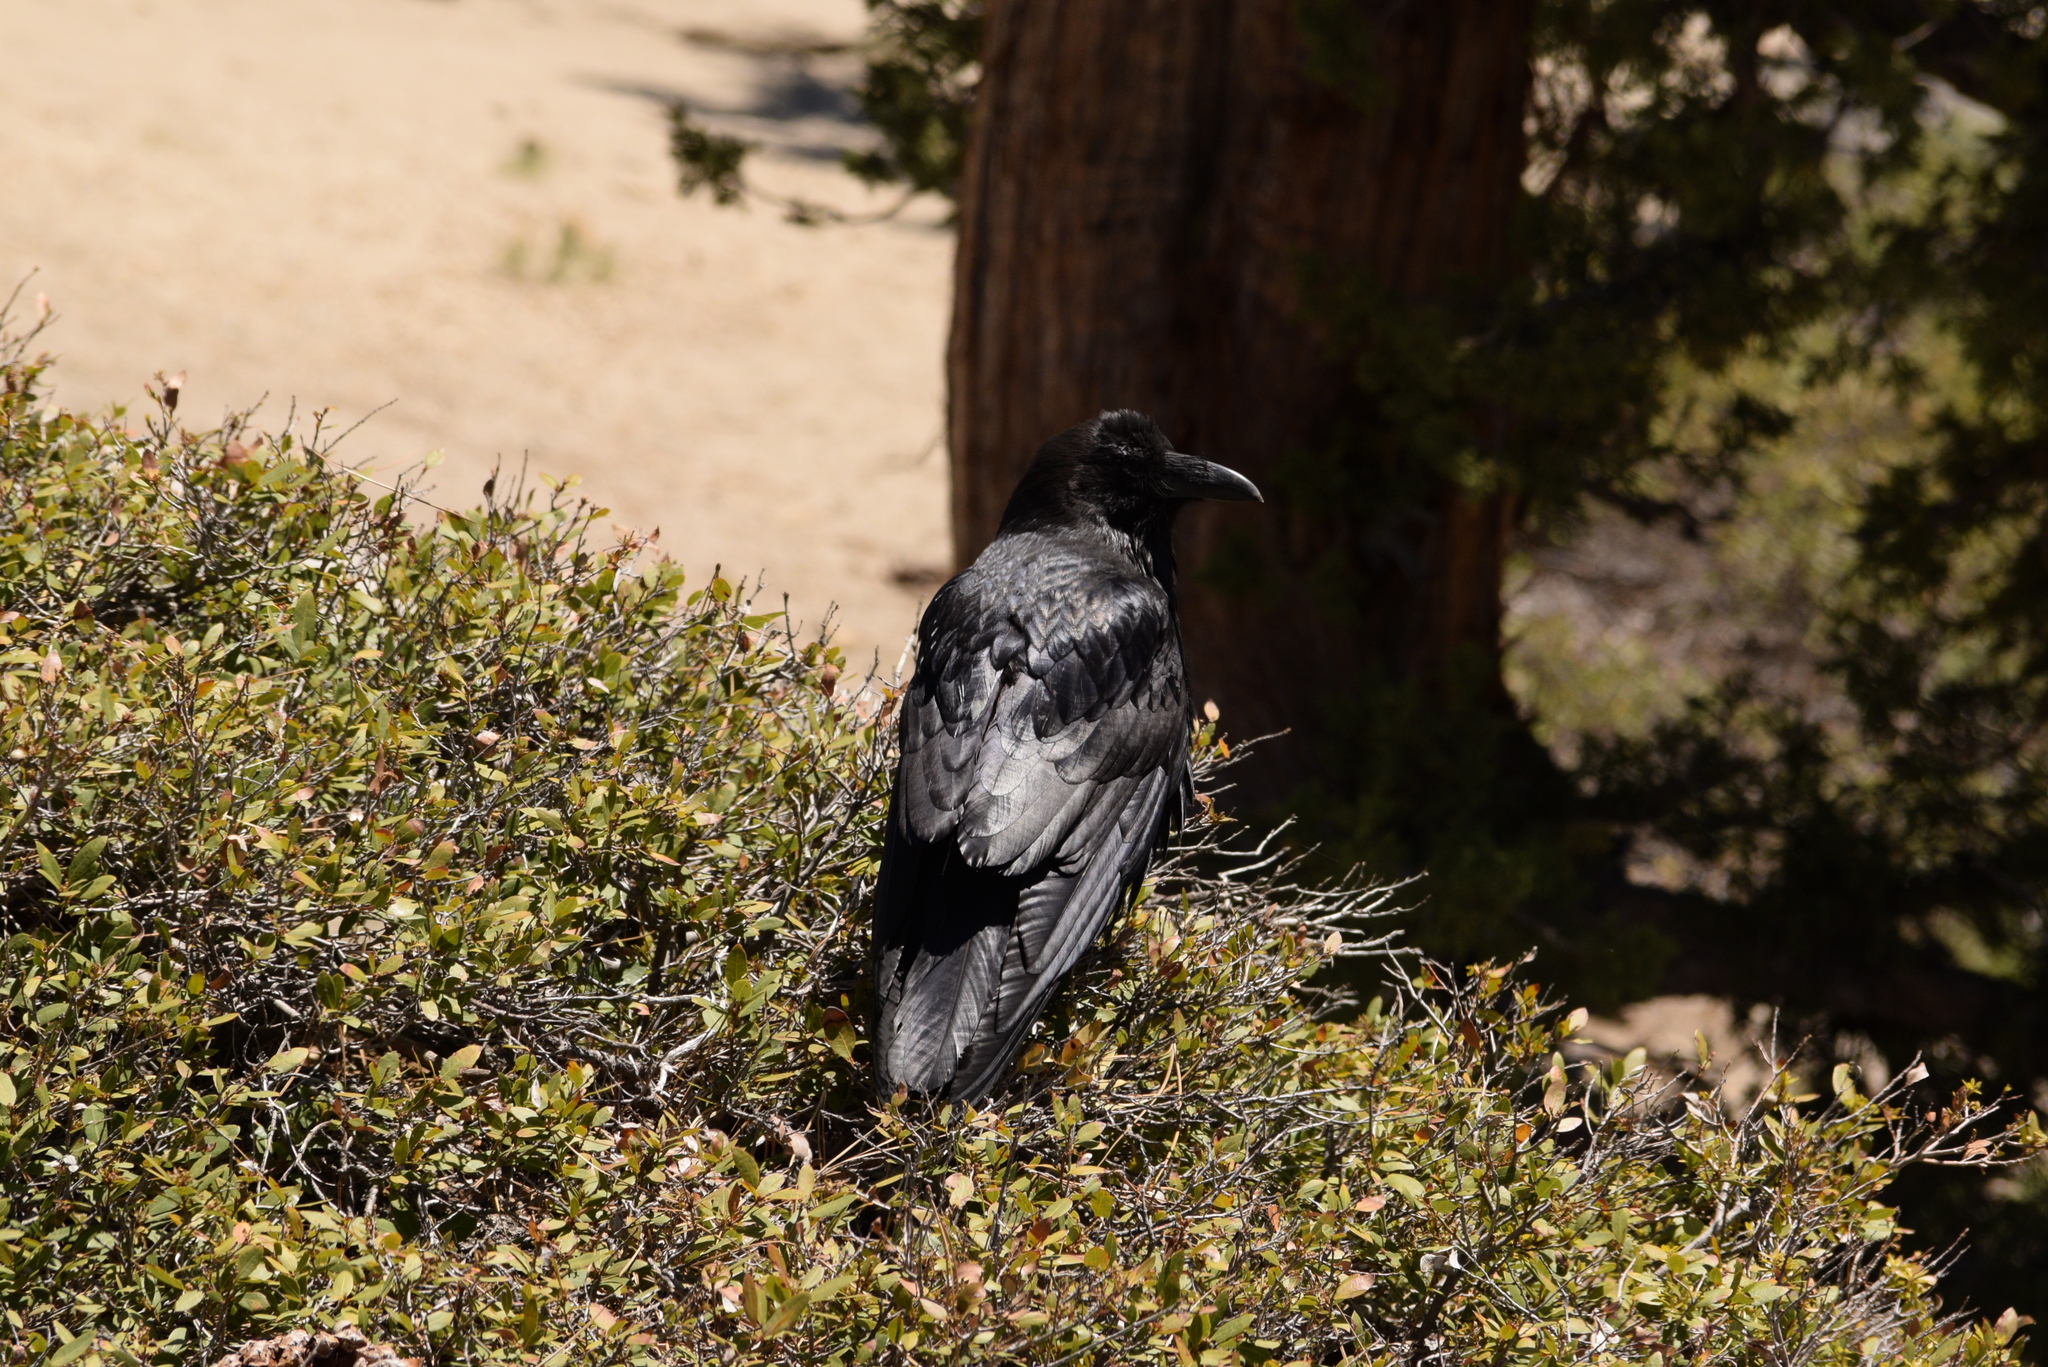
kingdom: Animalia
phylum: Chordata
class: Aves
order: Passeriformes
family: Corvidae
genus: Corvus
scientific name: Corvus corax
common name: Common raven
